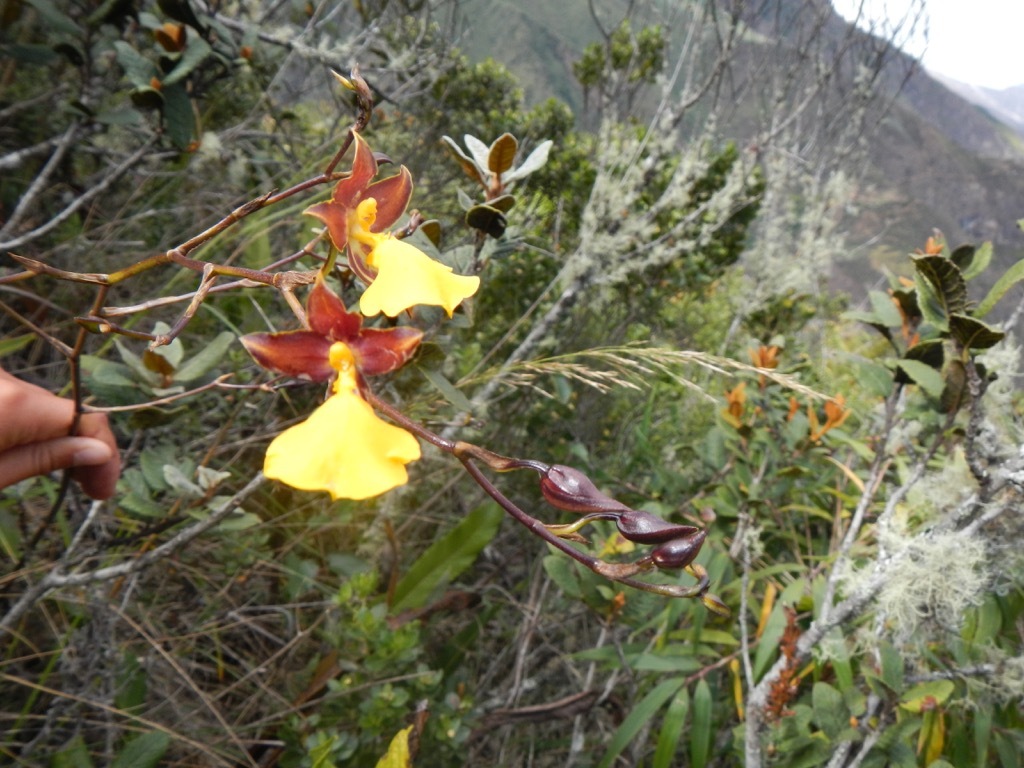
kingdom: Plantae
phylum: Tracheophyta
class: Liliopsida
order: Asparagales
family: Orchidaceae
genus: Cyrtochilum
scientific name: Cyrtochilum aureum
